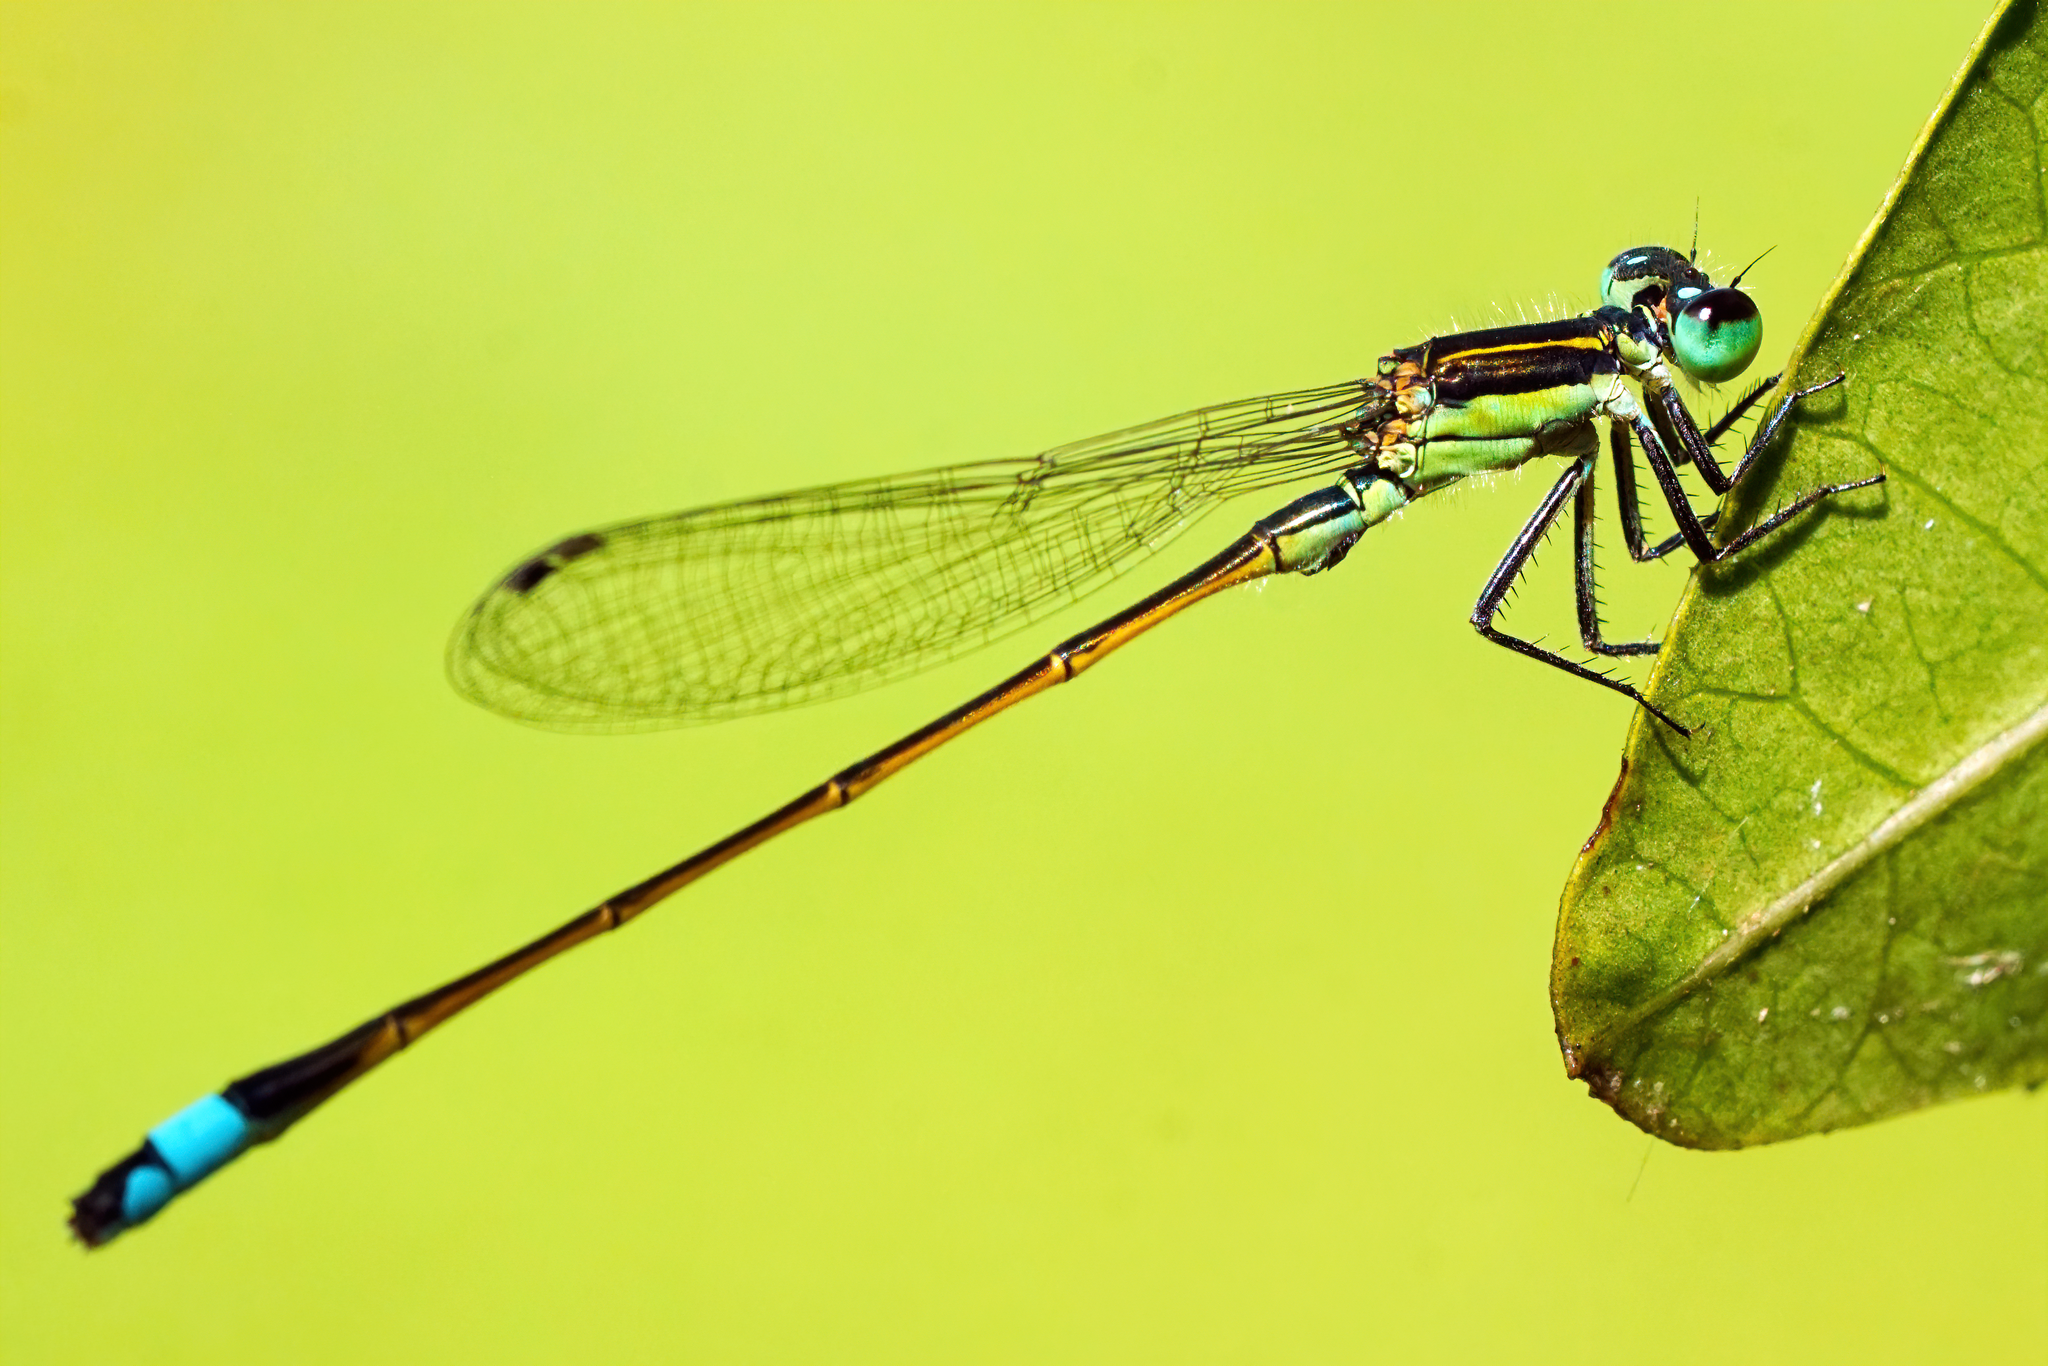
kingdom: Animalia
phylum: Arthropoda
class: Insecta
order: Odonata
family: Coenagrionidae
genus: Ischnura
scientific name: Ischnura ramburii
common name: Rambur's forktail
